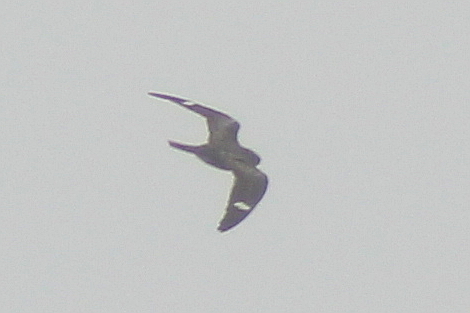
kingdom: Animalia
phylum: Chordata
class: Aves
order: Caprimulgiformes
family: Caprimulgidae
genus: Chordeiles
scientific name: Chordeiles minor
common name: Common nighthawk
